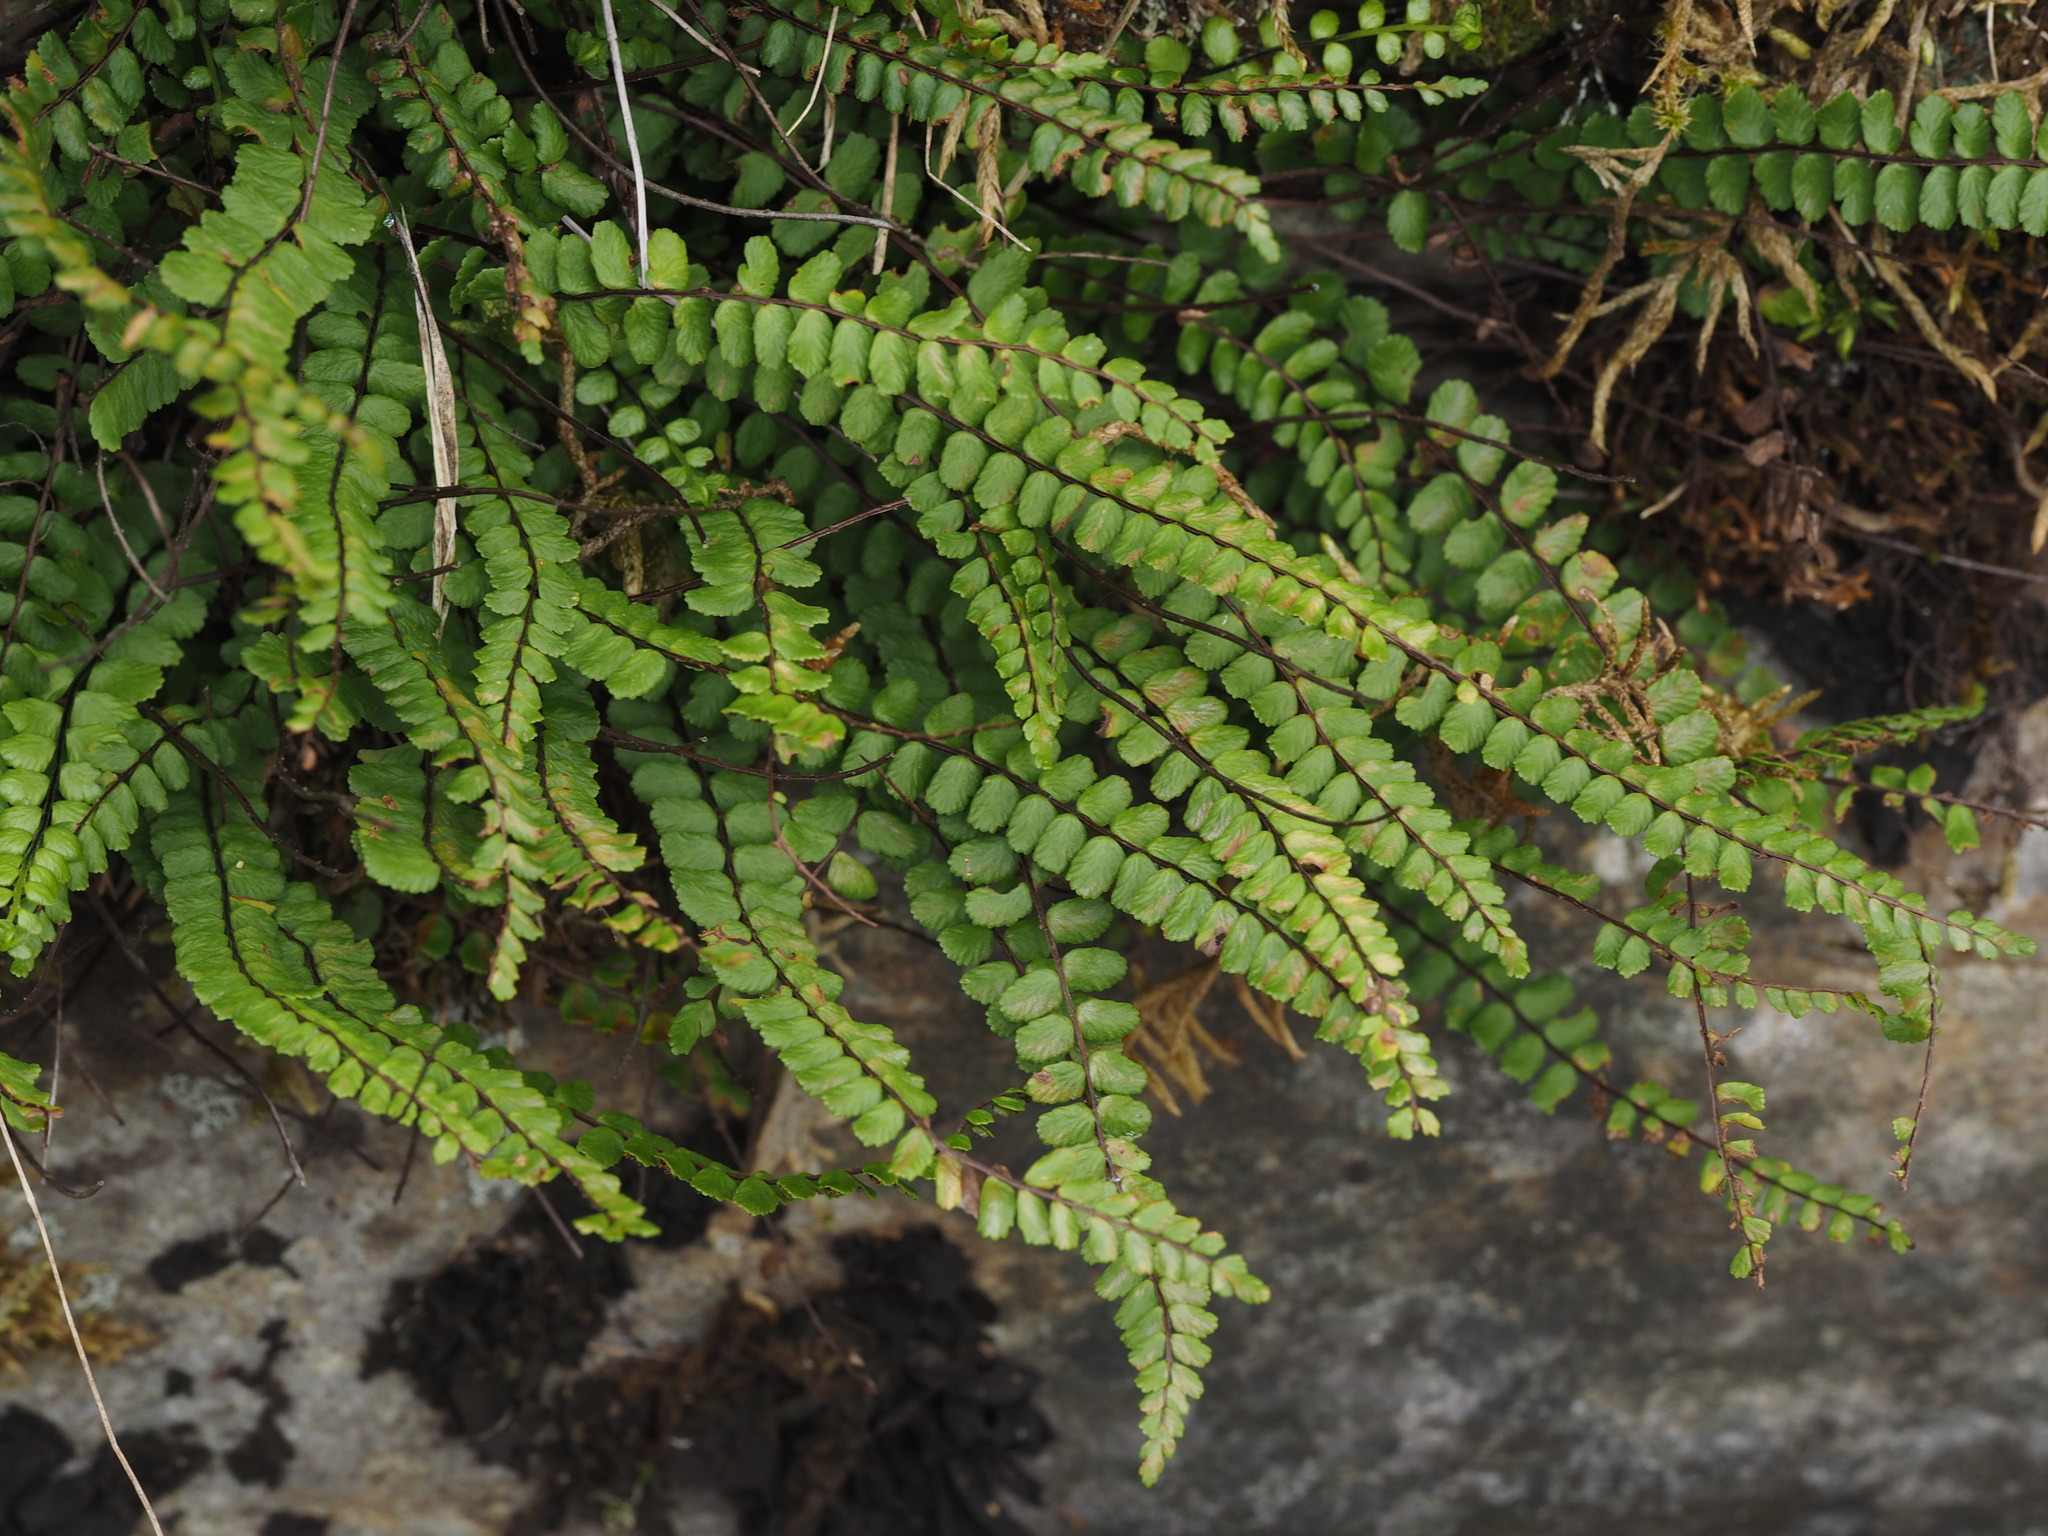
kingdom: Plantae
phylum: Tracheophyta
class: Polypodiopsida
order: Polypodiales
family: Aspleniaceae
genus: Asplenium
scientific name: Asplenium trichomanes
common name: Maidenhair spleenwort
